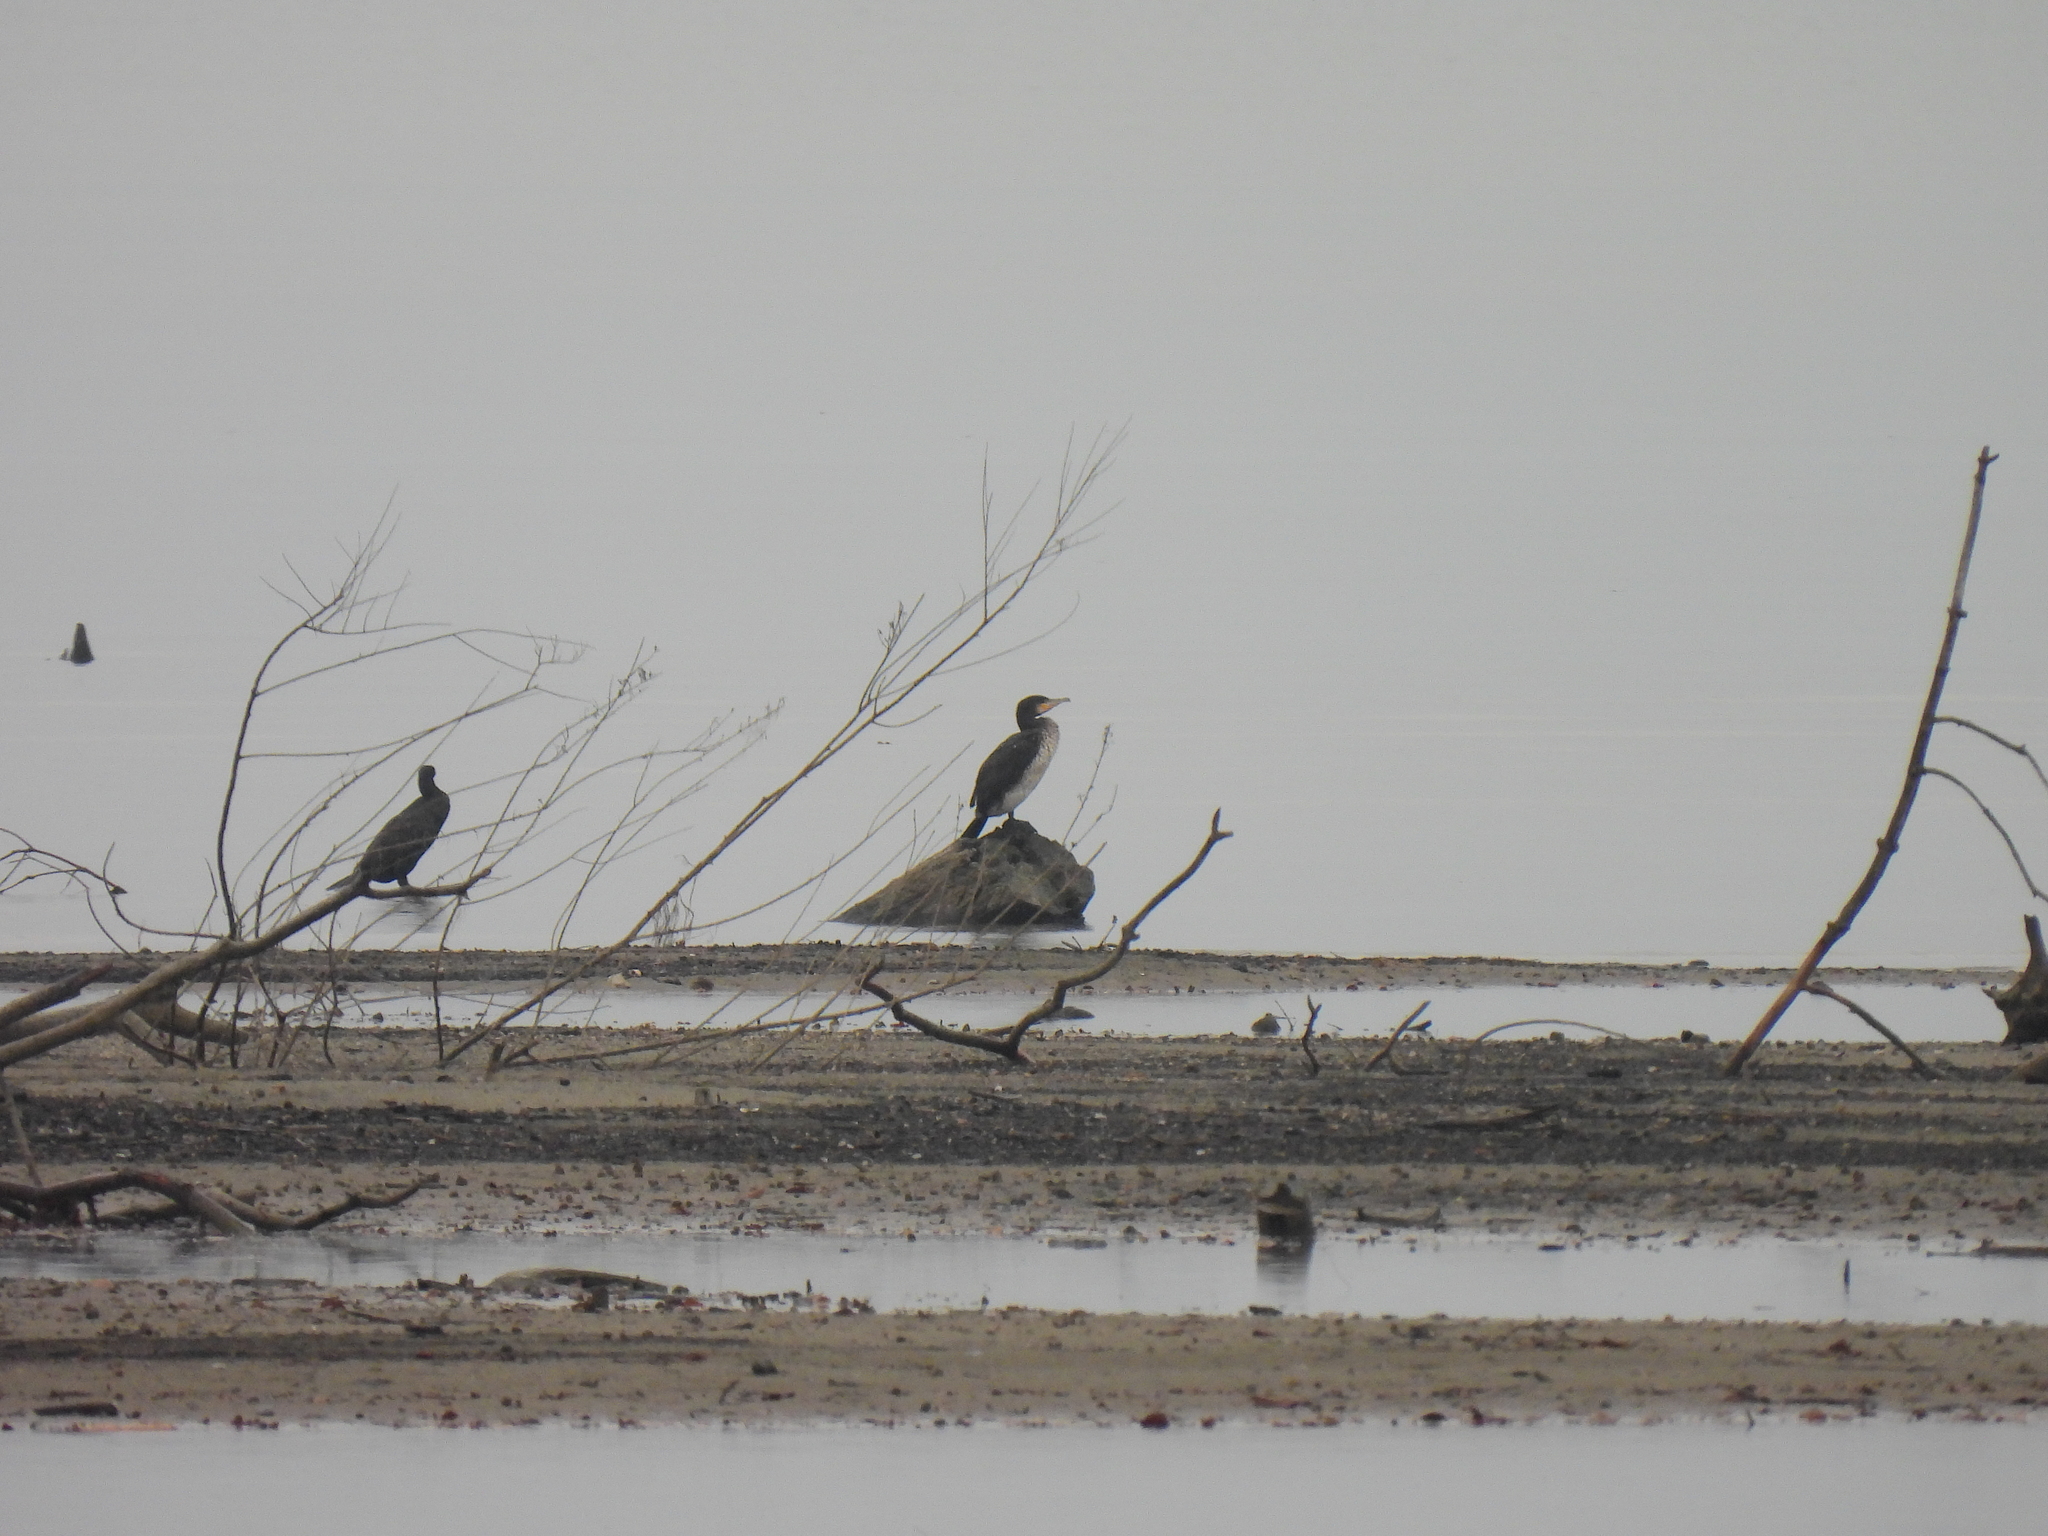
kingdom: Animalia
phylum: Chordata
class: Aves
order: Suliformes
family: Phalacrocoracidae
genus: Phalacrocorax
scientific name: Phalacrocorax carbo
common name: Great cormorant
